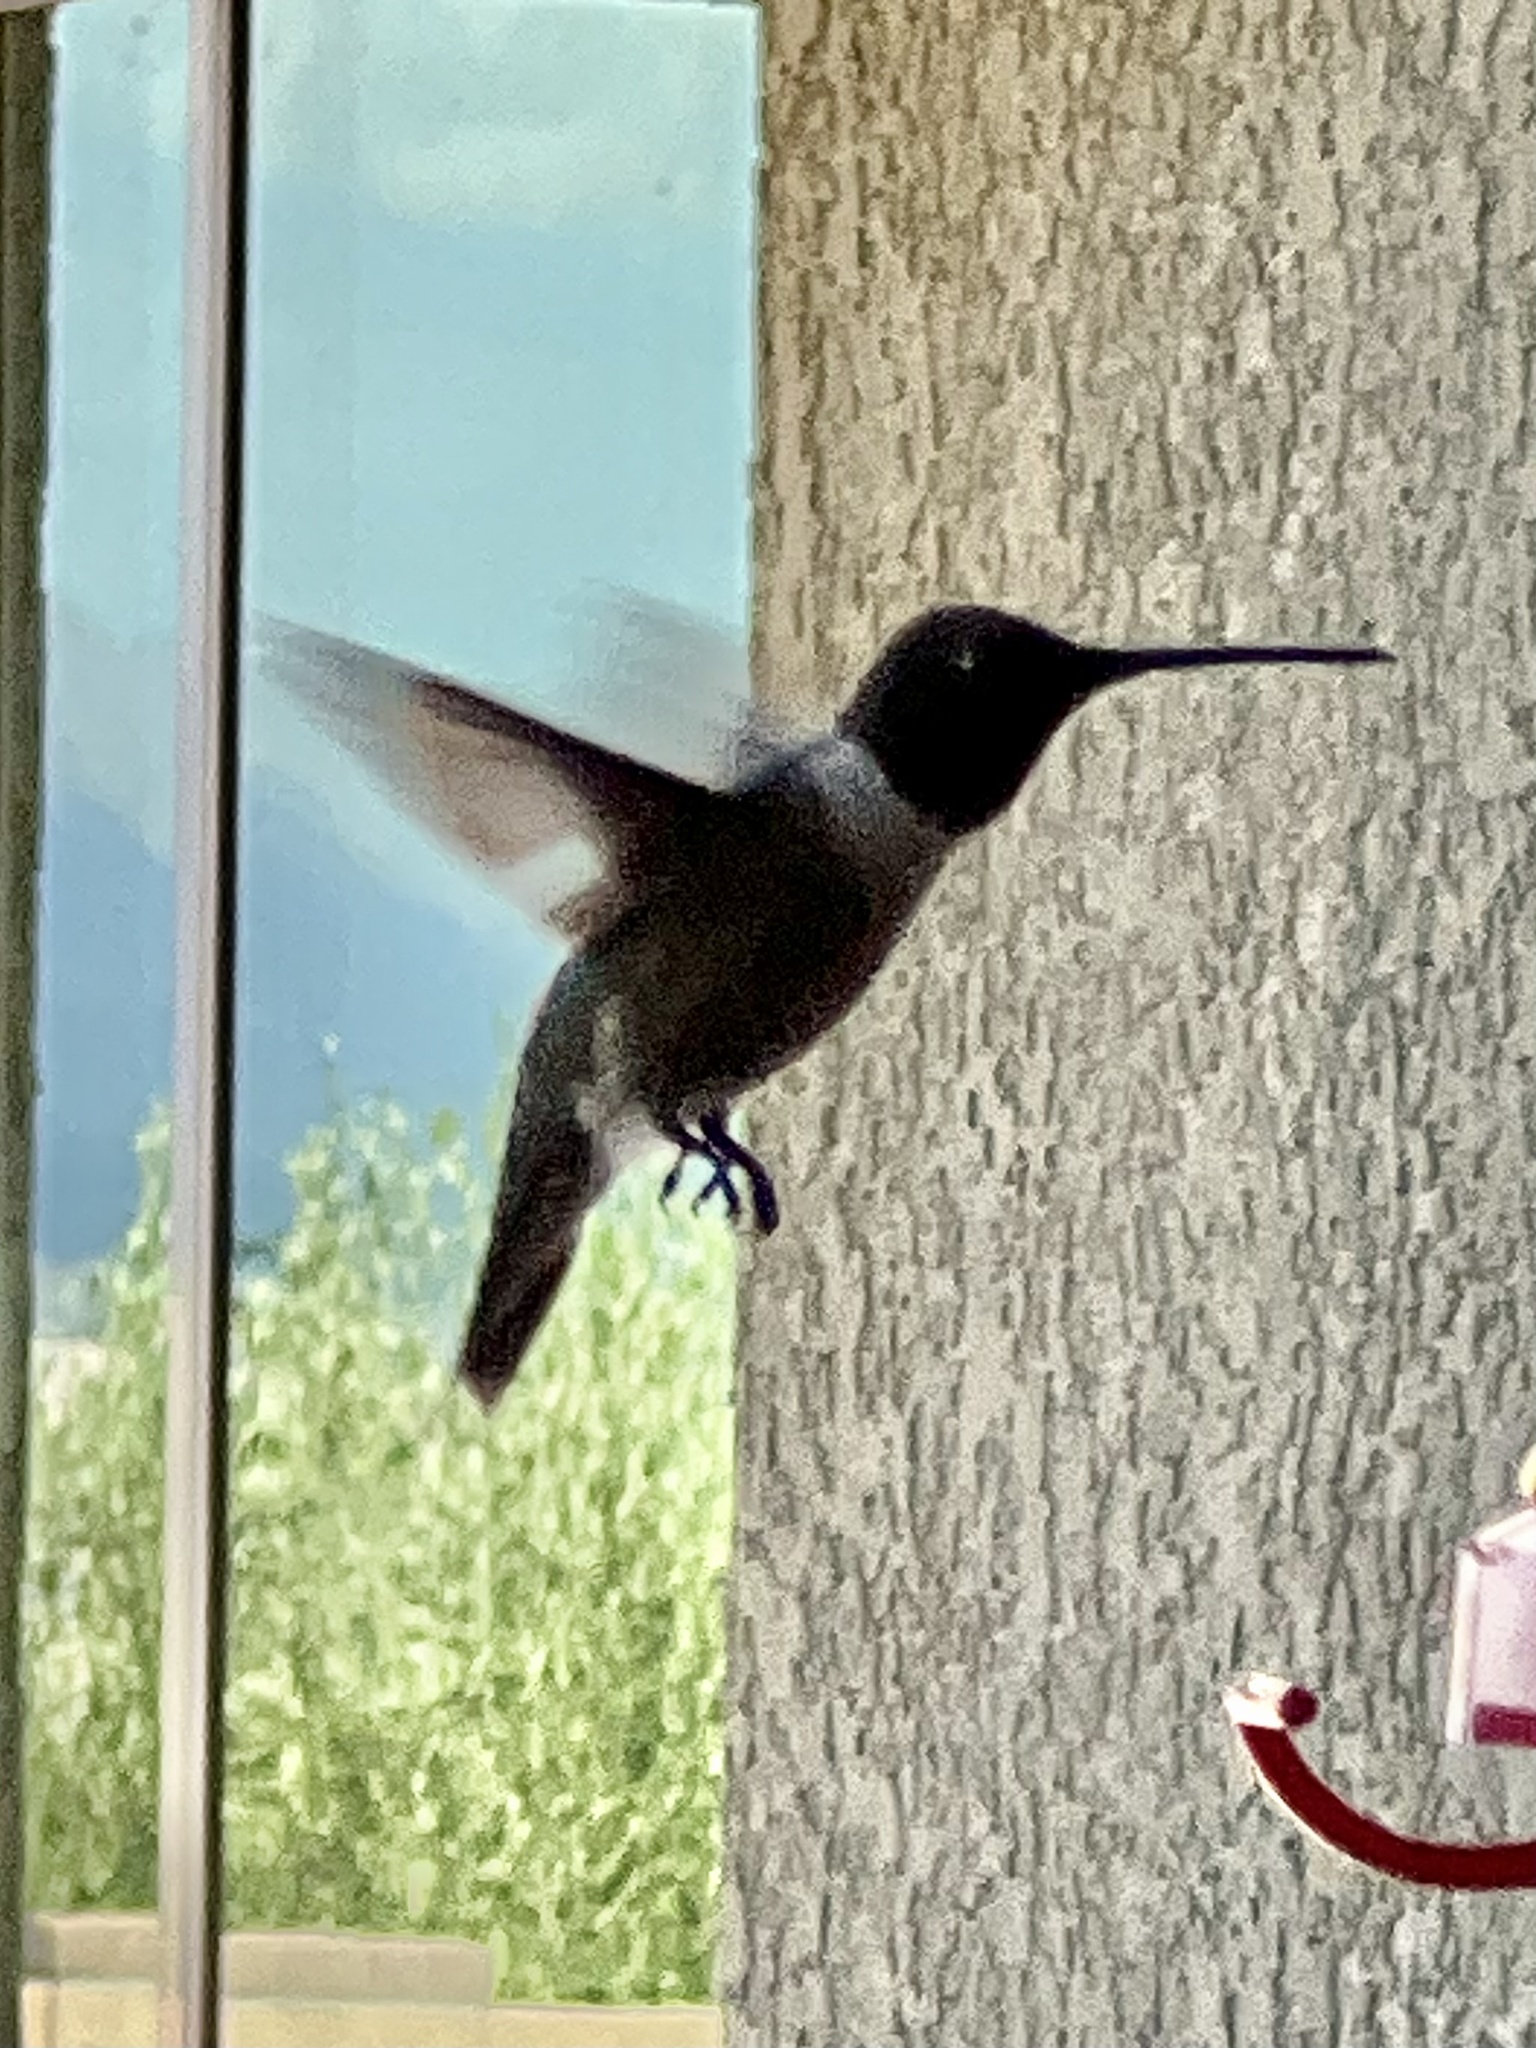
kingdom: Animalia
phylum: Chordata
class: Aves
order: Apodiformes
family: Trochilidae
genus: Archilochus
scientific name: Archilochus alexandri
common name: Black-chinned hummingbird
